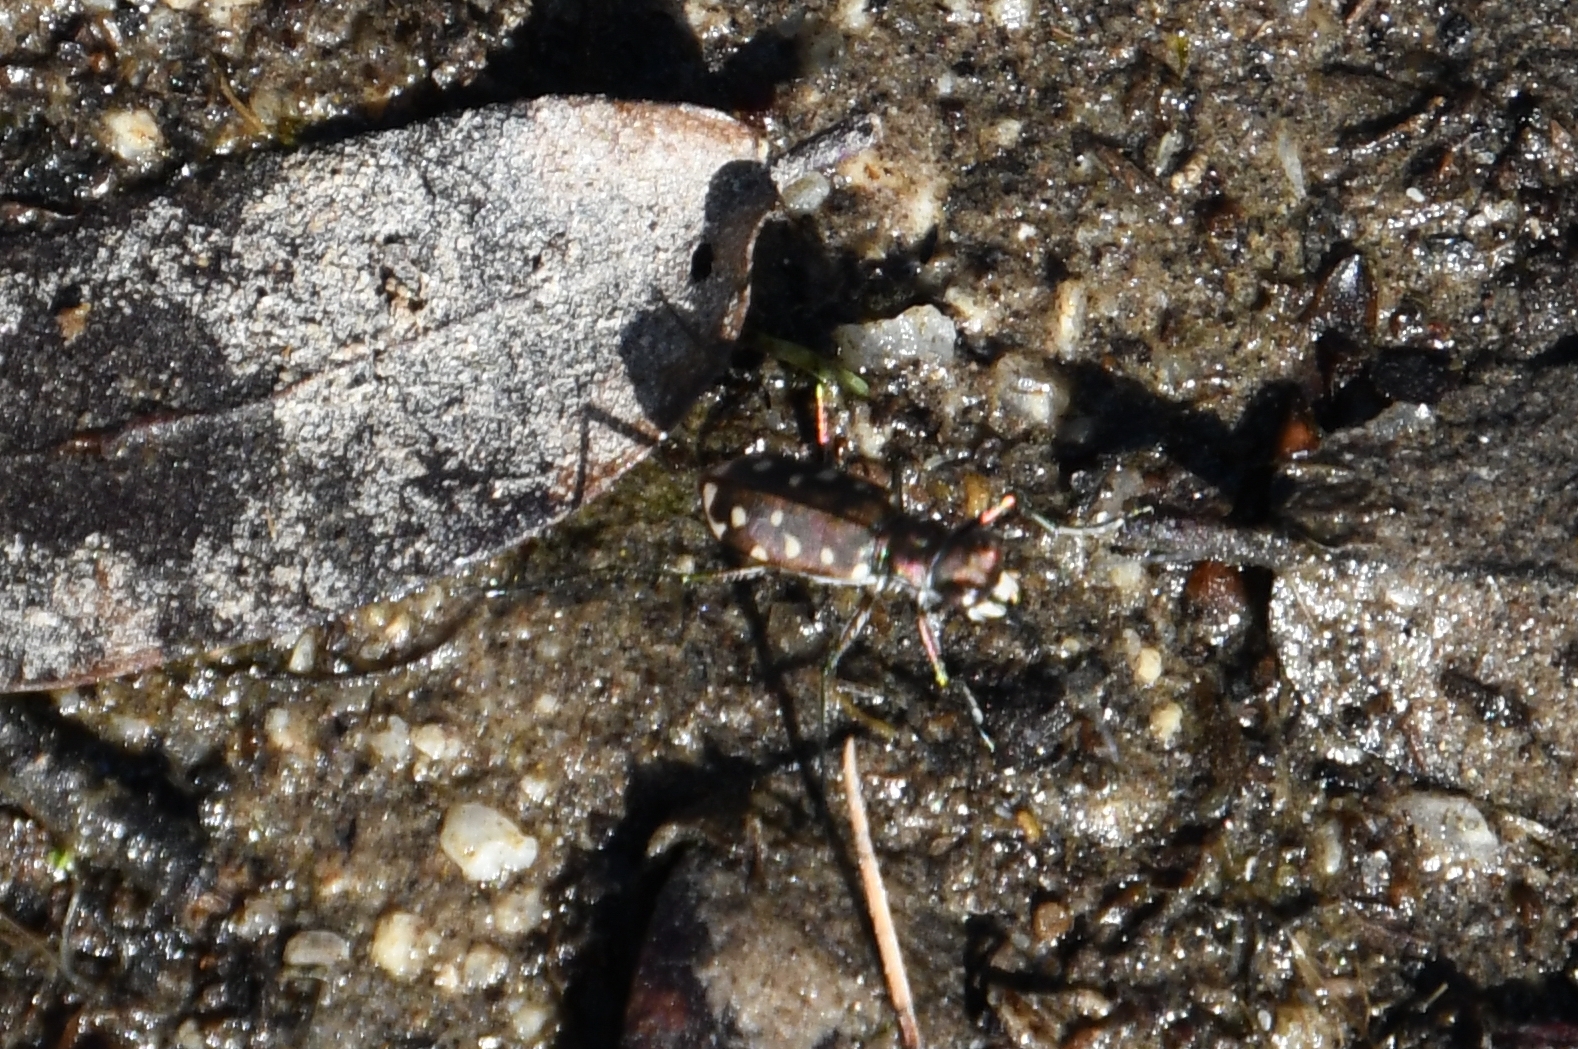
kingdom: Animalia
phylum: Arthropoda
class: Insecta
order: Coleoptera
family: Carabidae
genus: Cicindela
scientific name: Cicindela sedecimpunctata
